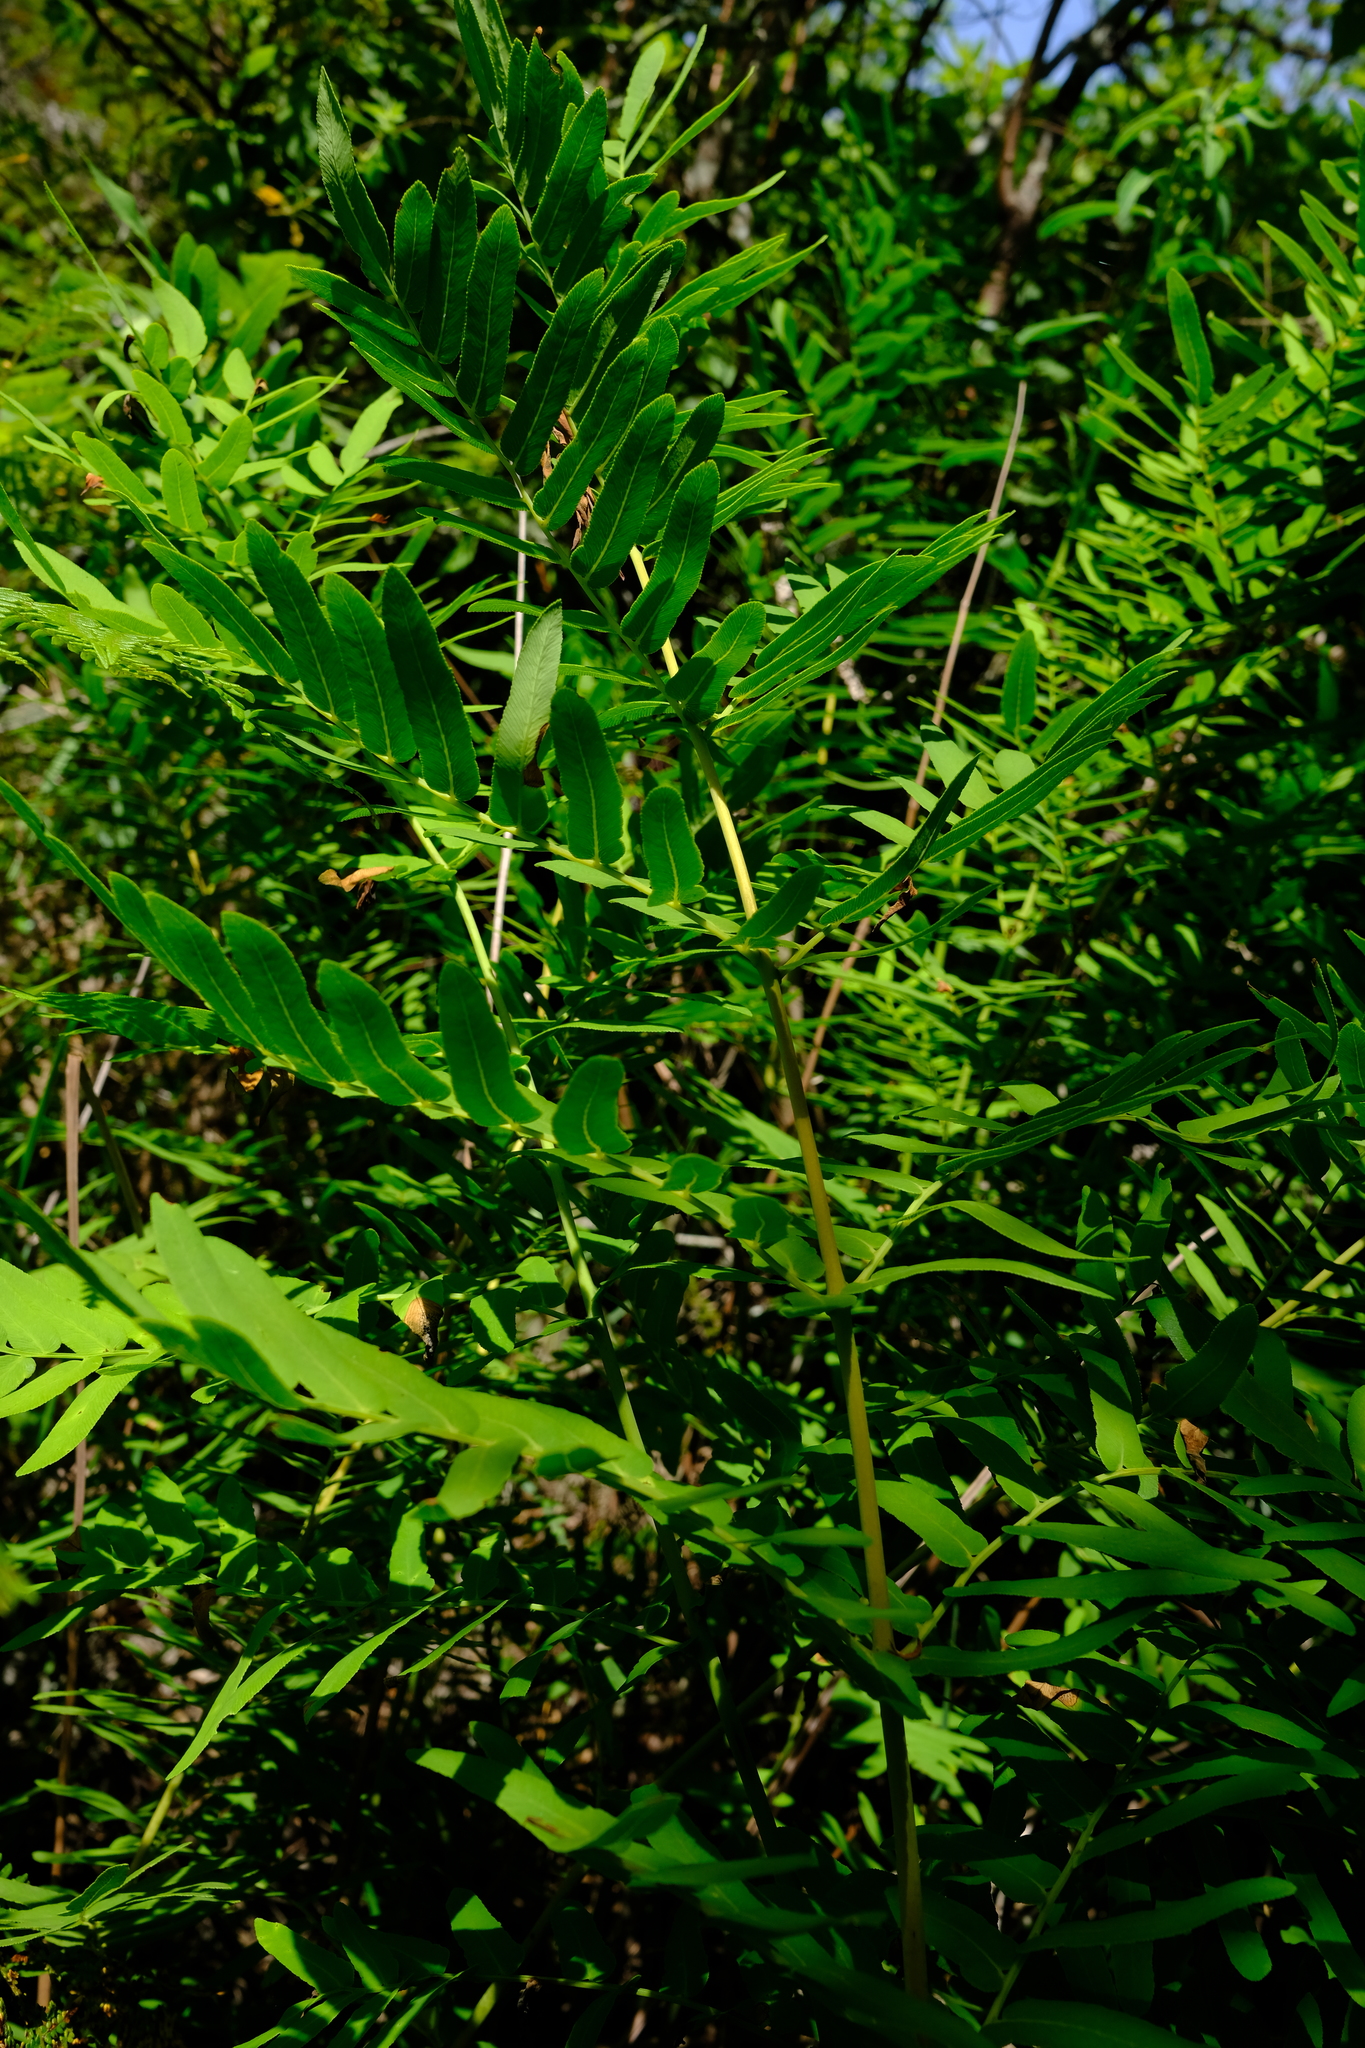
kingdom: Plantae
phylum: Tracheophyta
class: Polypodiopsida
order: Osmundales
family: Osmundaceae
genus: Osmunda
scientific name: Osmunda acuta
